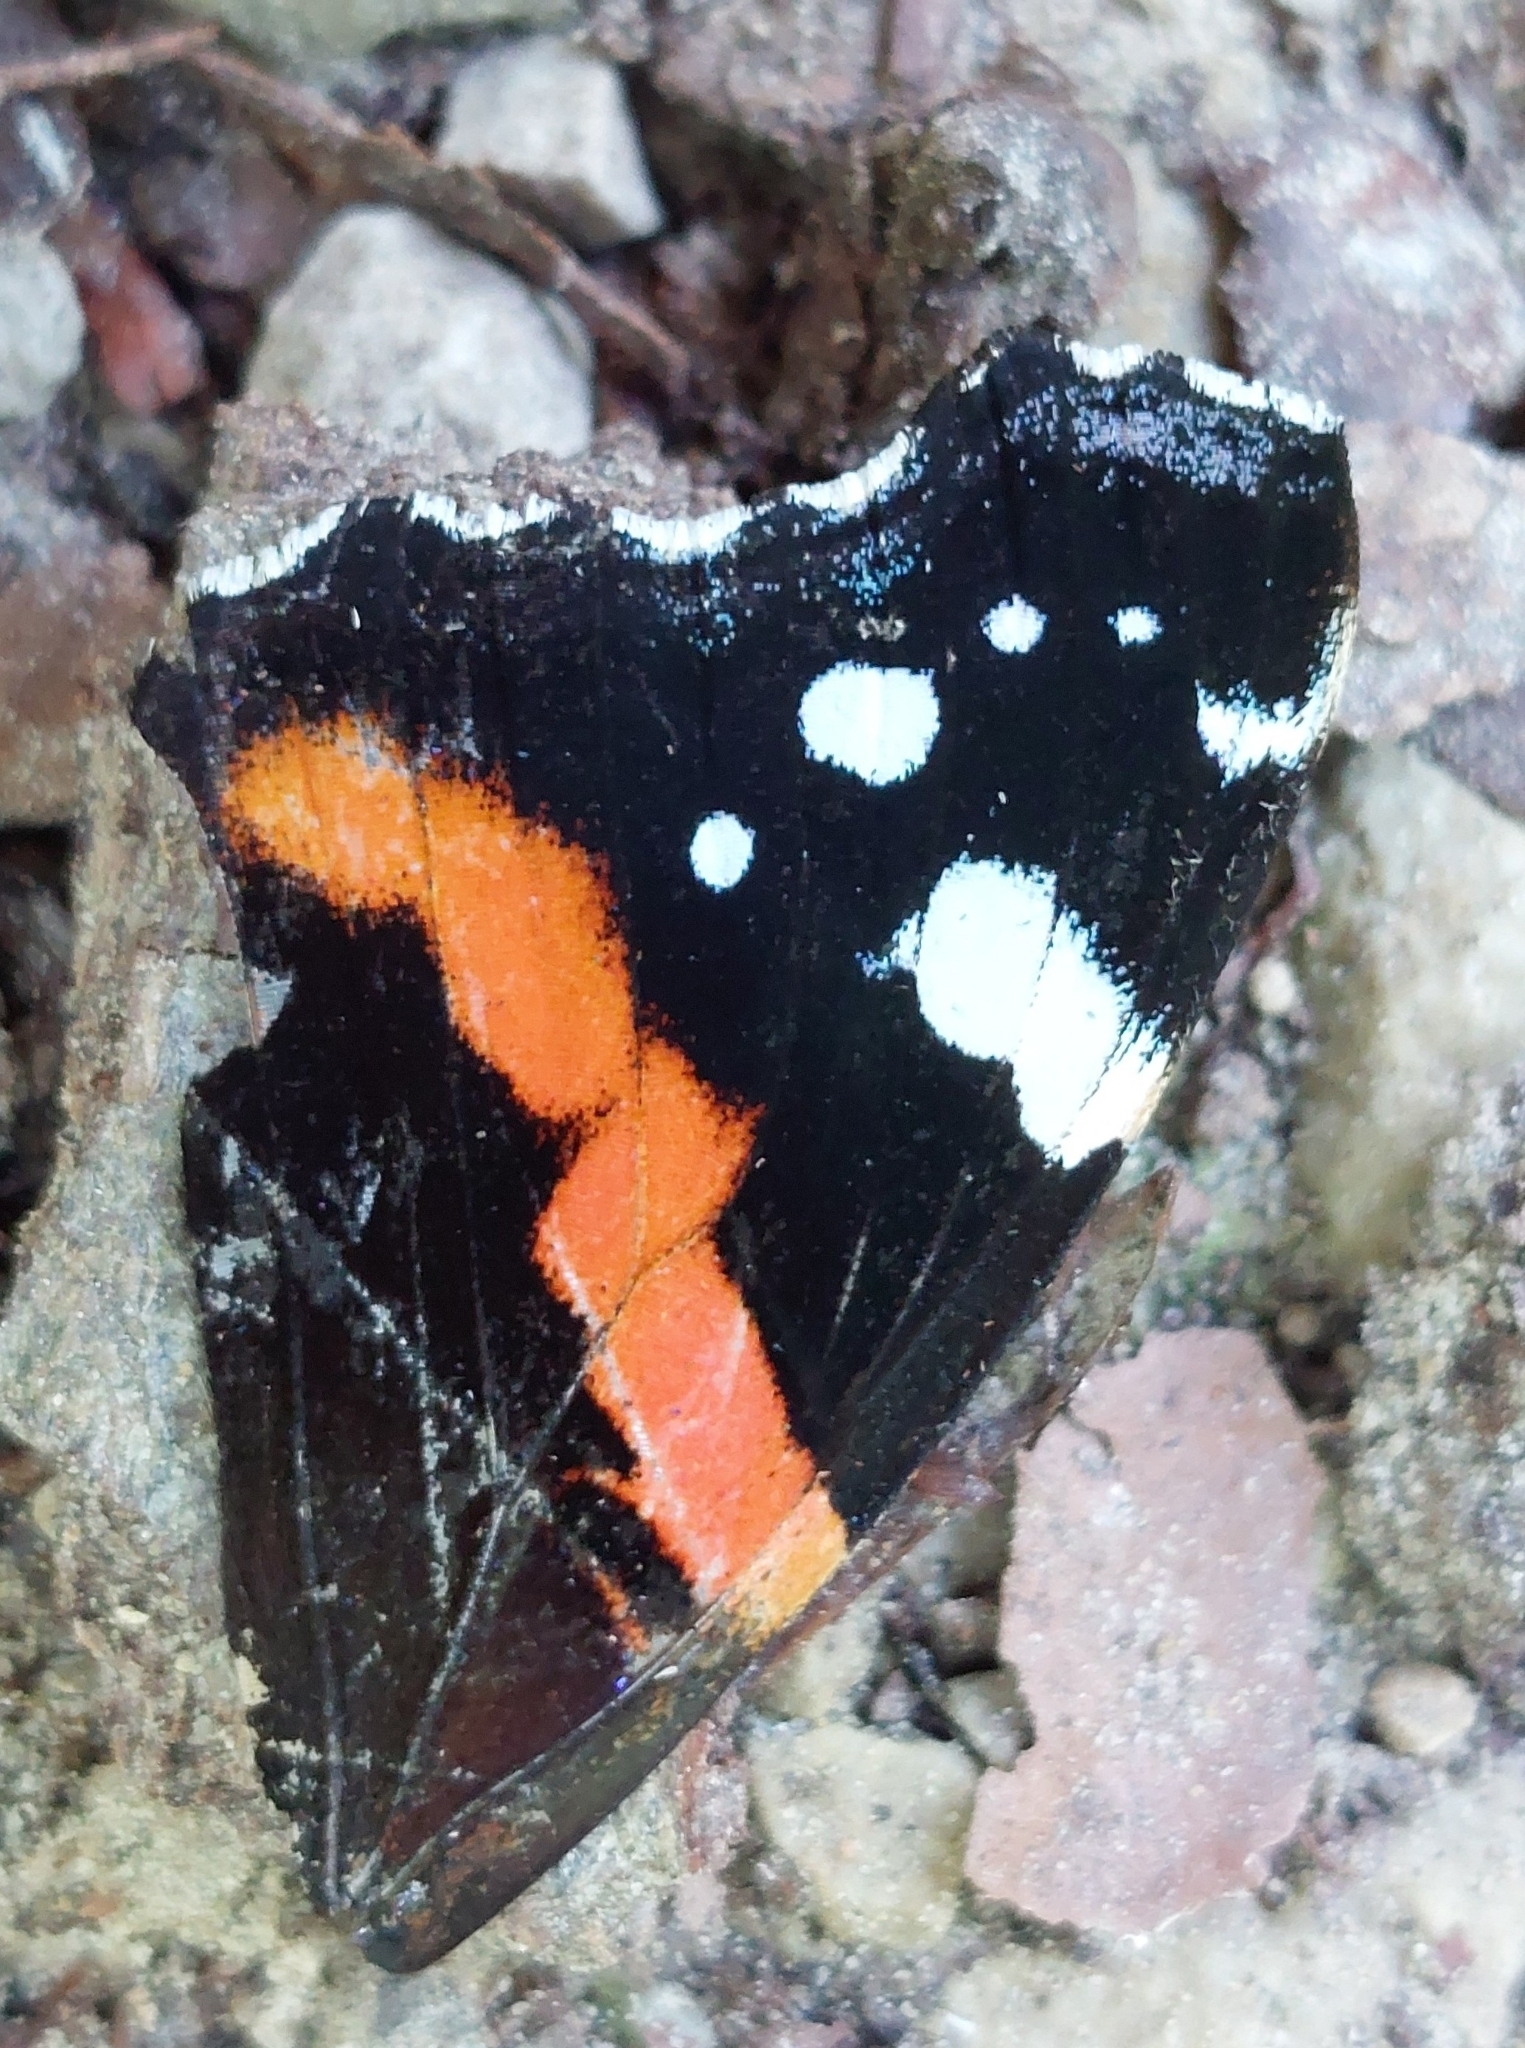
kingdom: Animalia
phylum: Arthropoda
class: Insecta
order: Lepidoptera
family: Nymphalidae
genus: Vanessa
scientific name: Vanessa atalanta
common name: Red admiral
